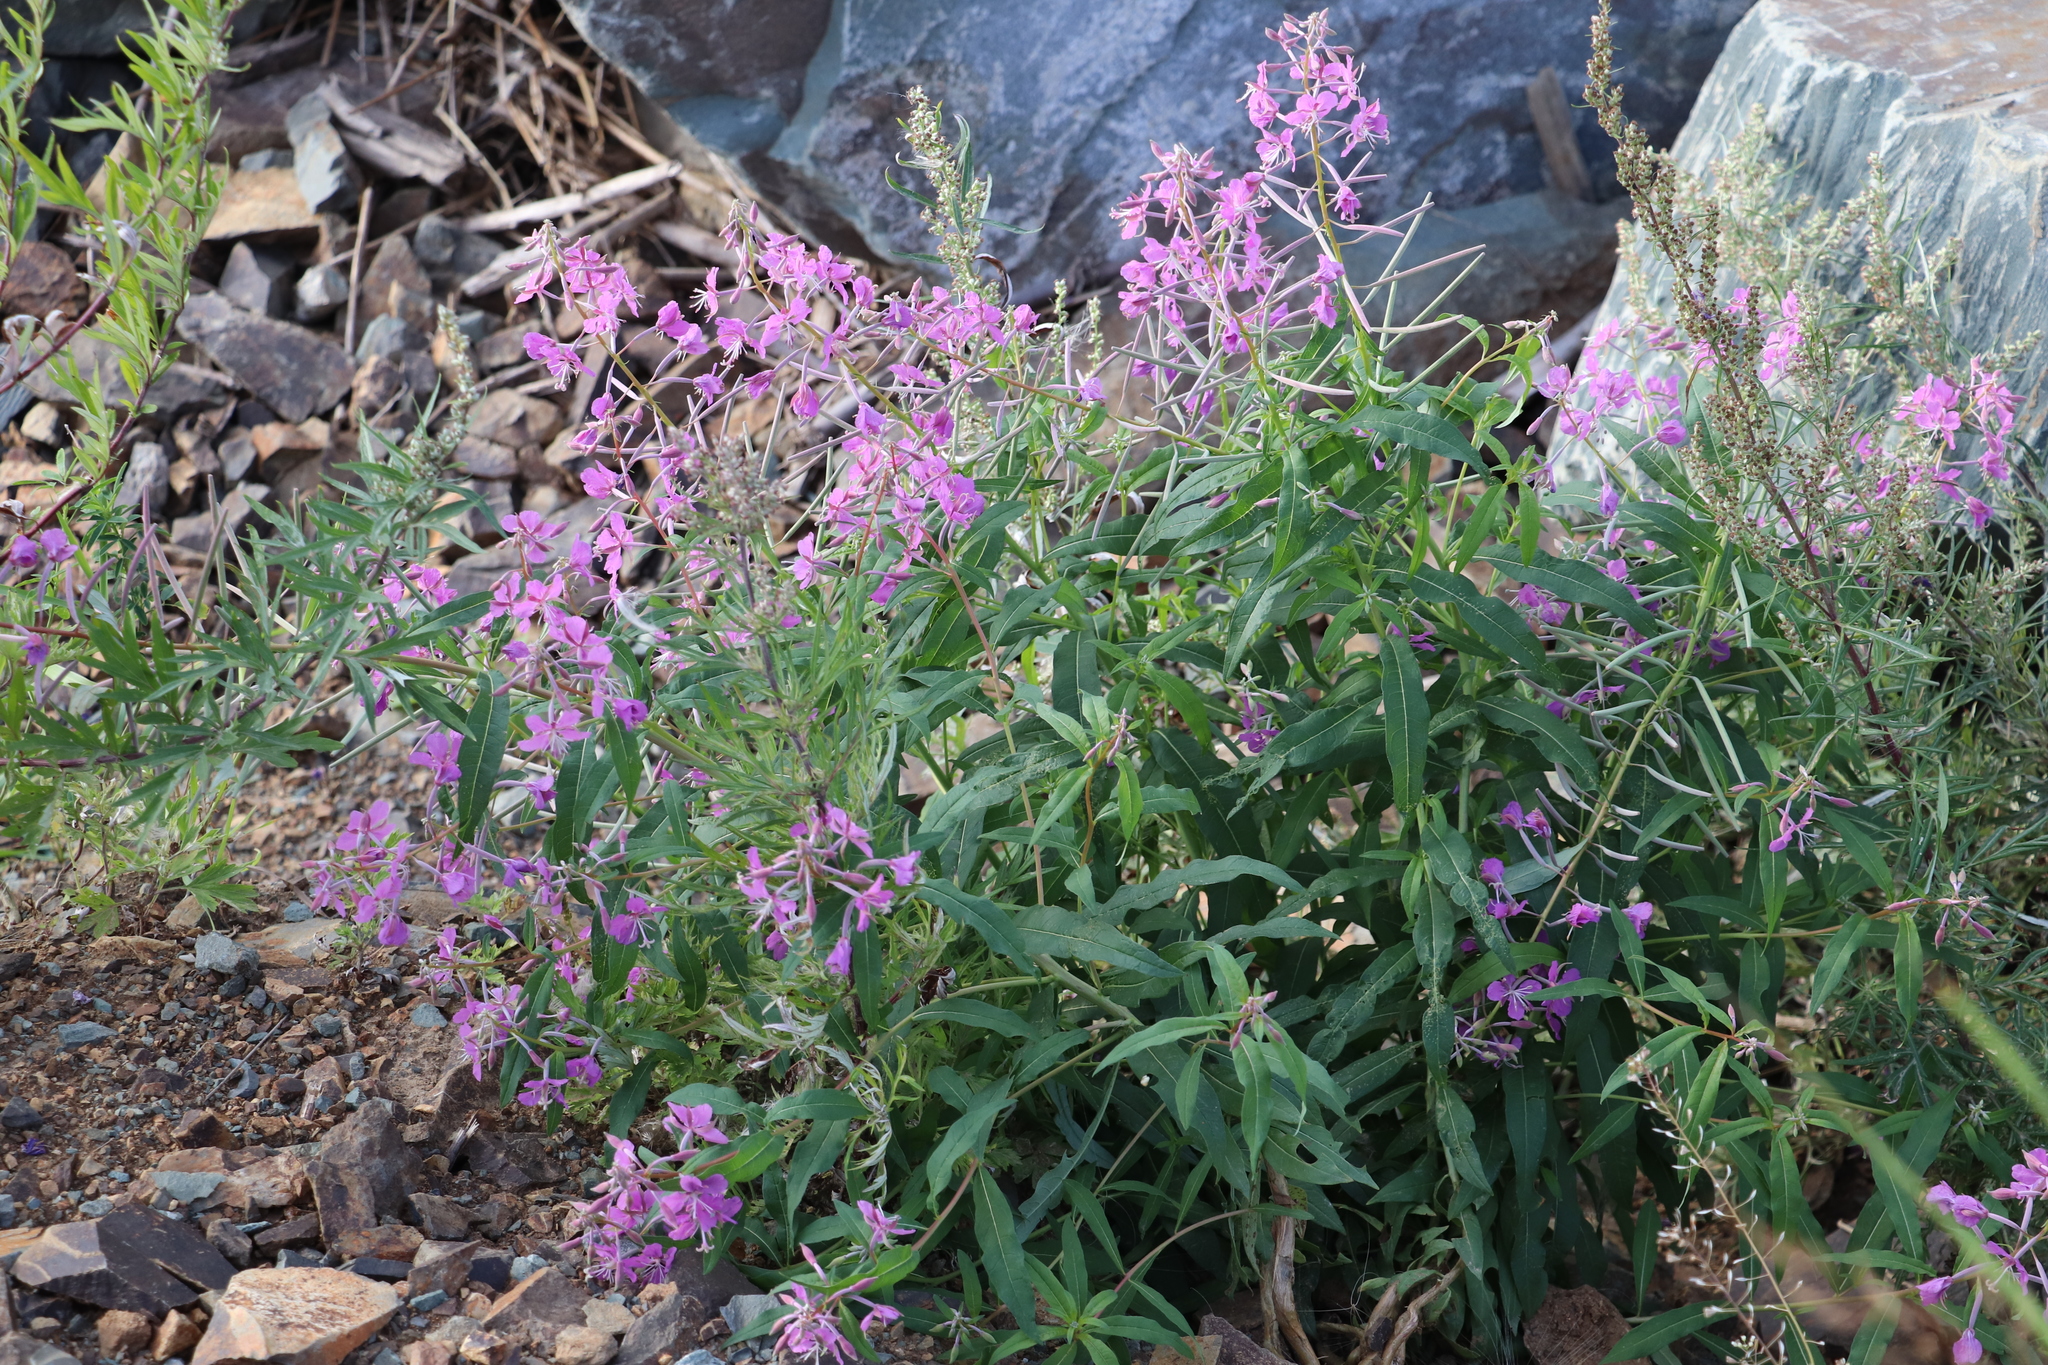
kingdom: Plantae
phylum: Tracheophyta
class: Magnoliopsida
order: Myrtales
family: Onagraceae
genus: Chamaenerion
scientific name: Chamaenerion angustifolium
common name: Fireweed
